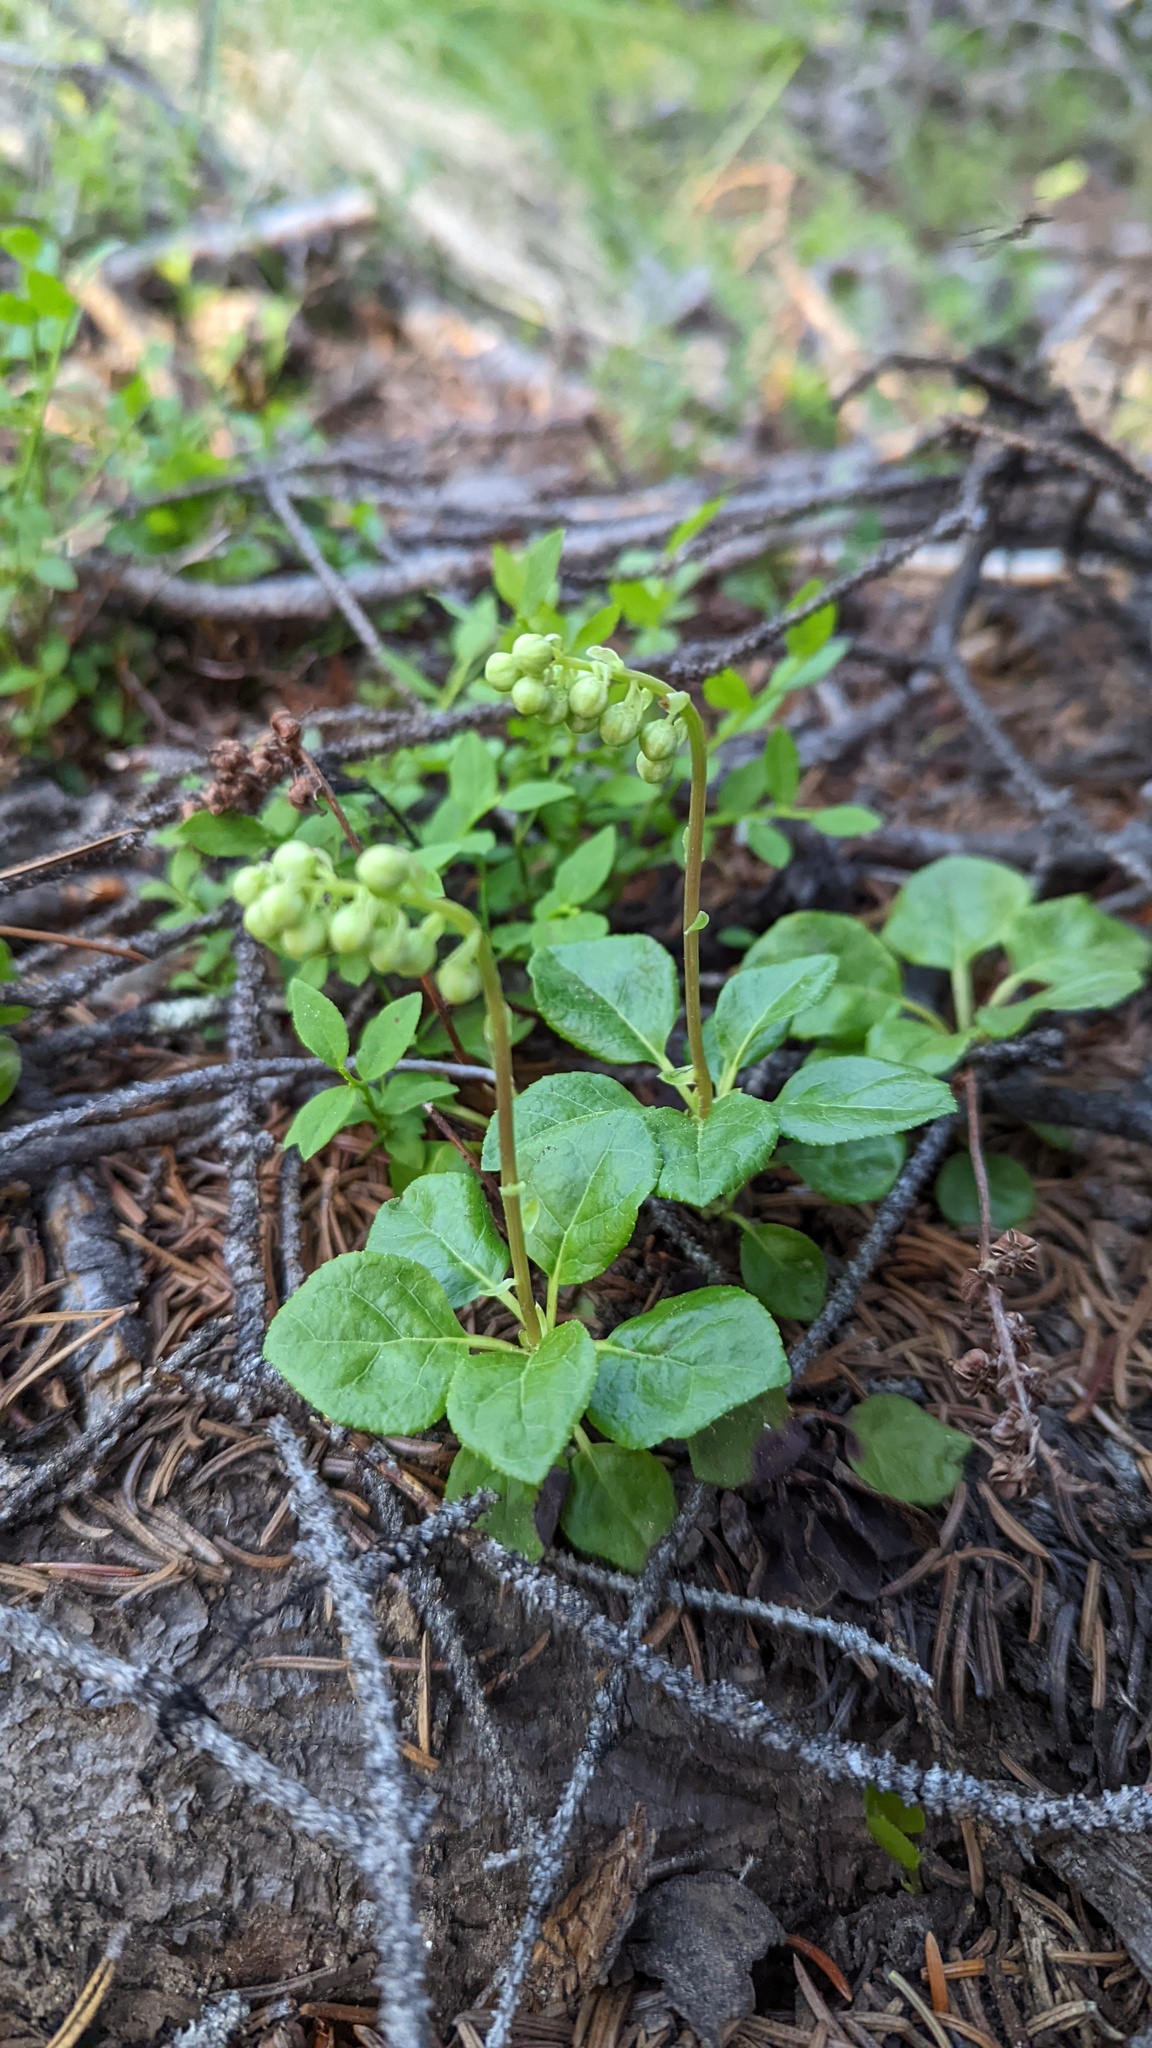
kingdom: Plantae
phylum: Tracheophyta
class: Magnoliopsida
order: Ericales
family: Ericaceae
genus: Orthilia
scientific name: Orthilia secunda
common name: One-sided orthilia
